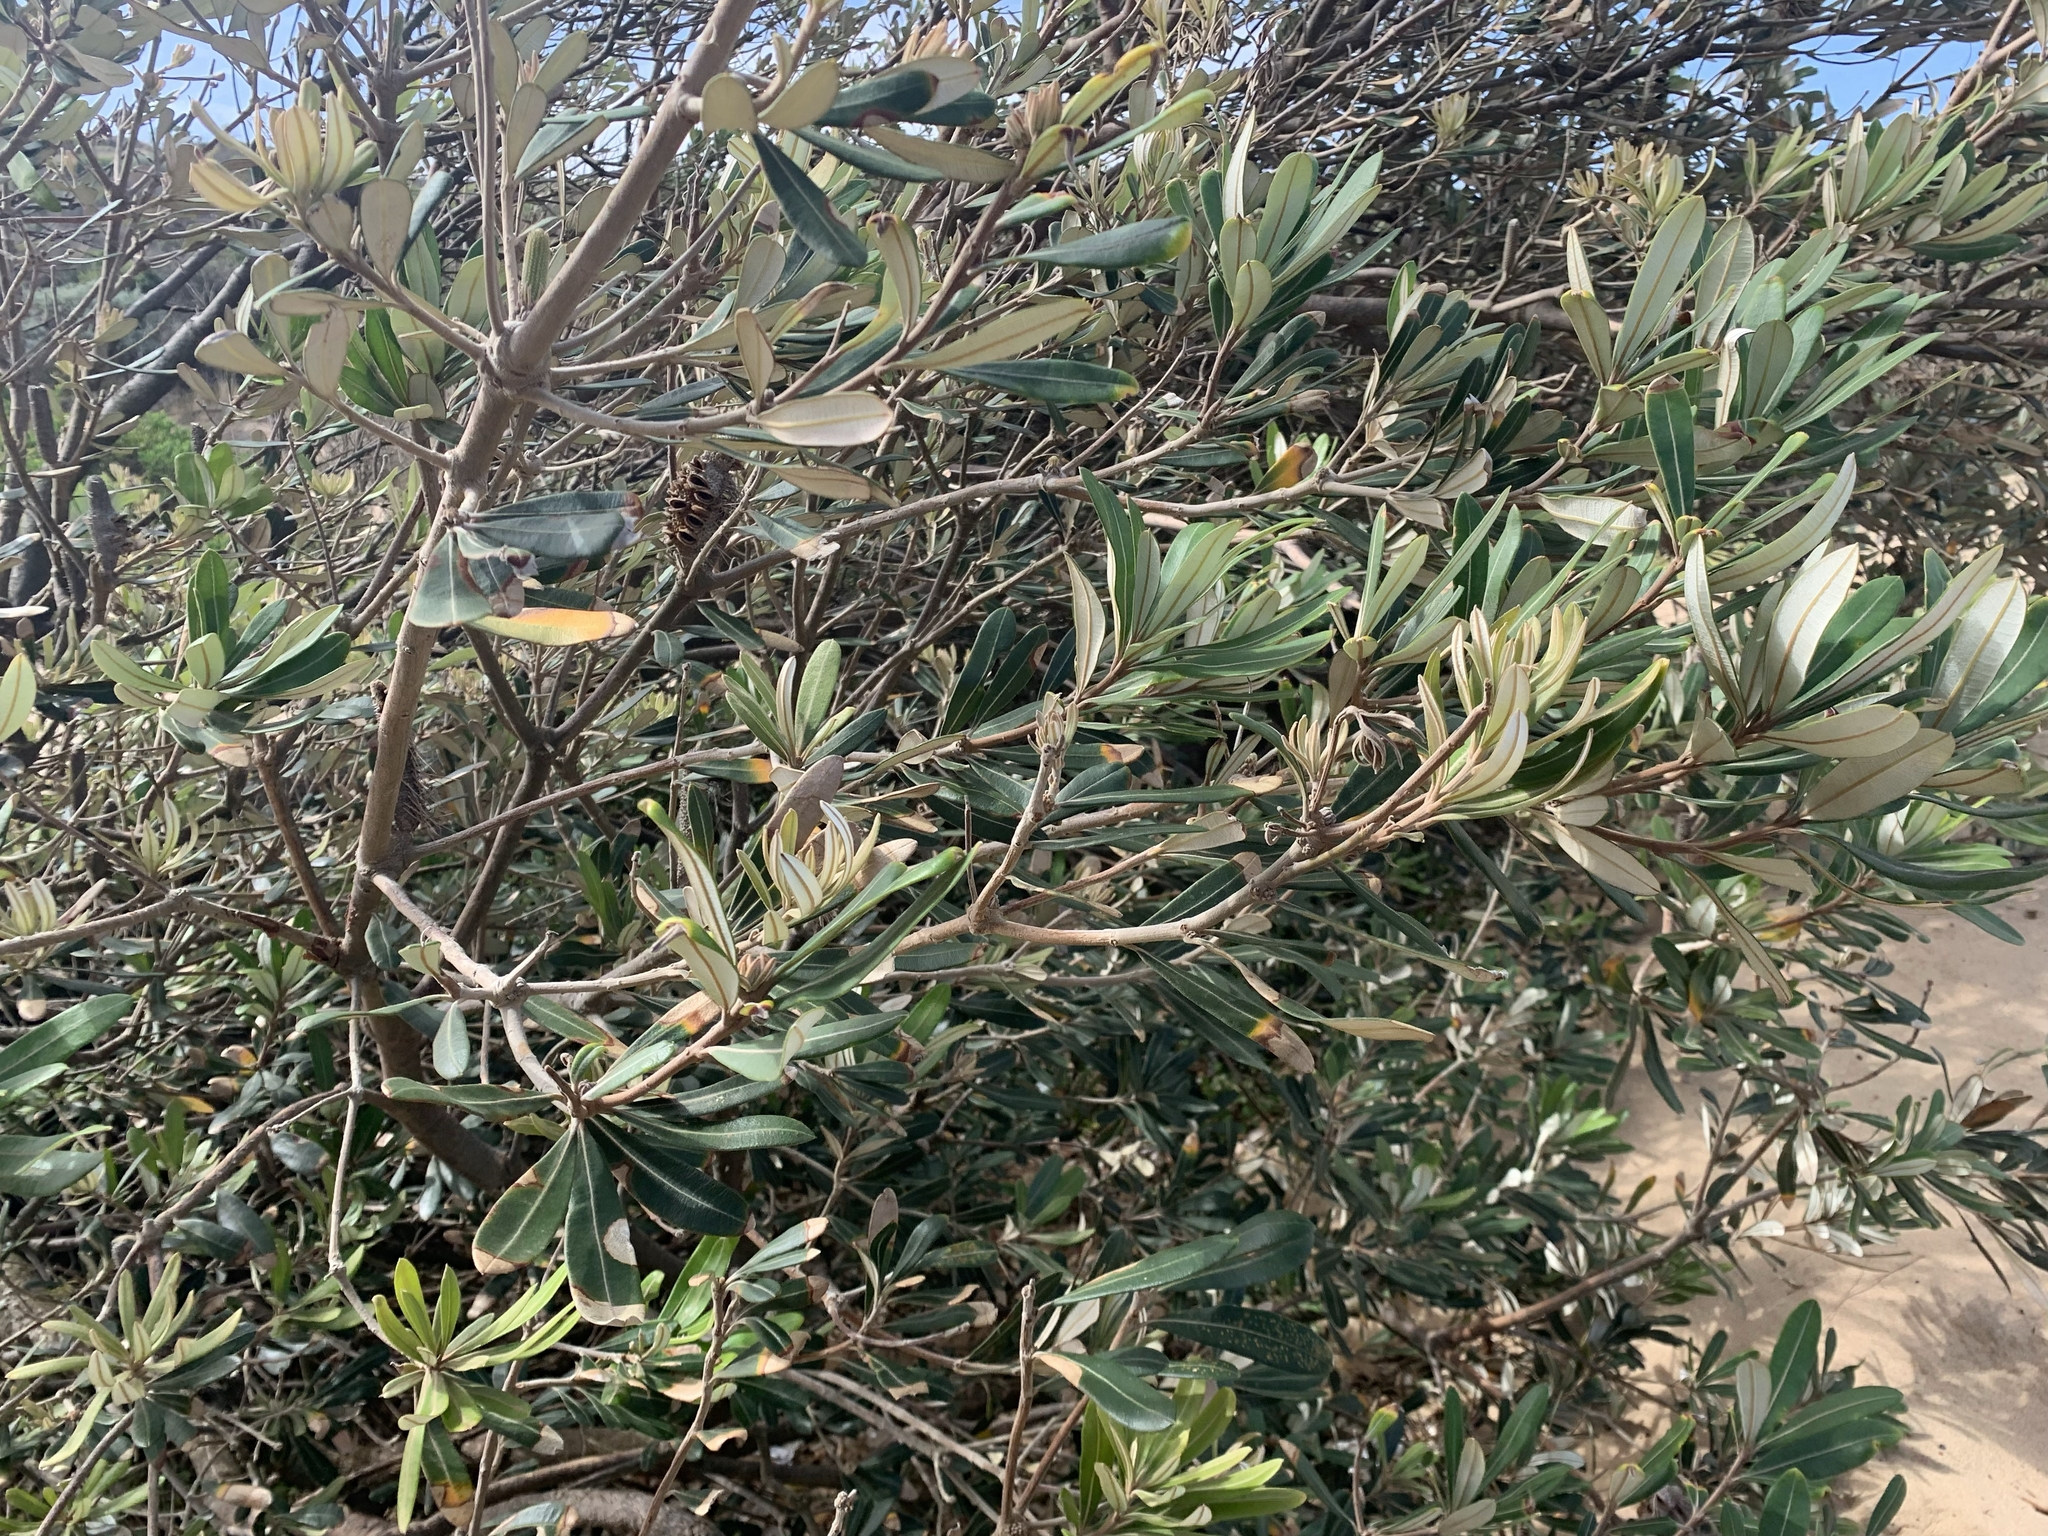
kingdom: Plantae
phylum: Tracheophyta
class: Magnoliopsida
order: Proteales
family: Proteaceae
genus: Banksia
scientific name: Banksia integrifolia
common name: White-honeysuckle
